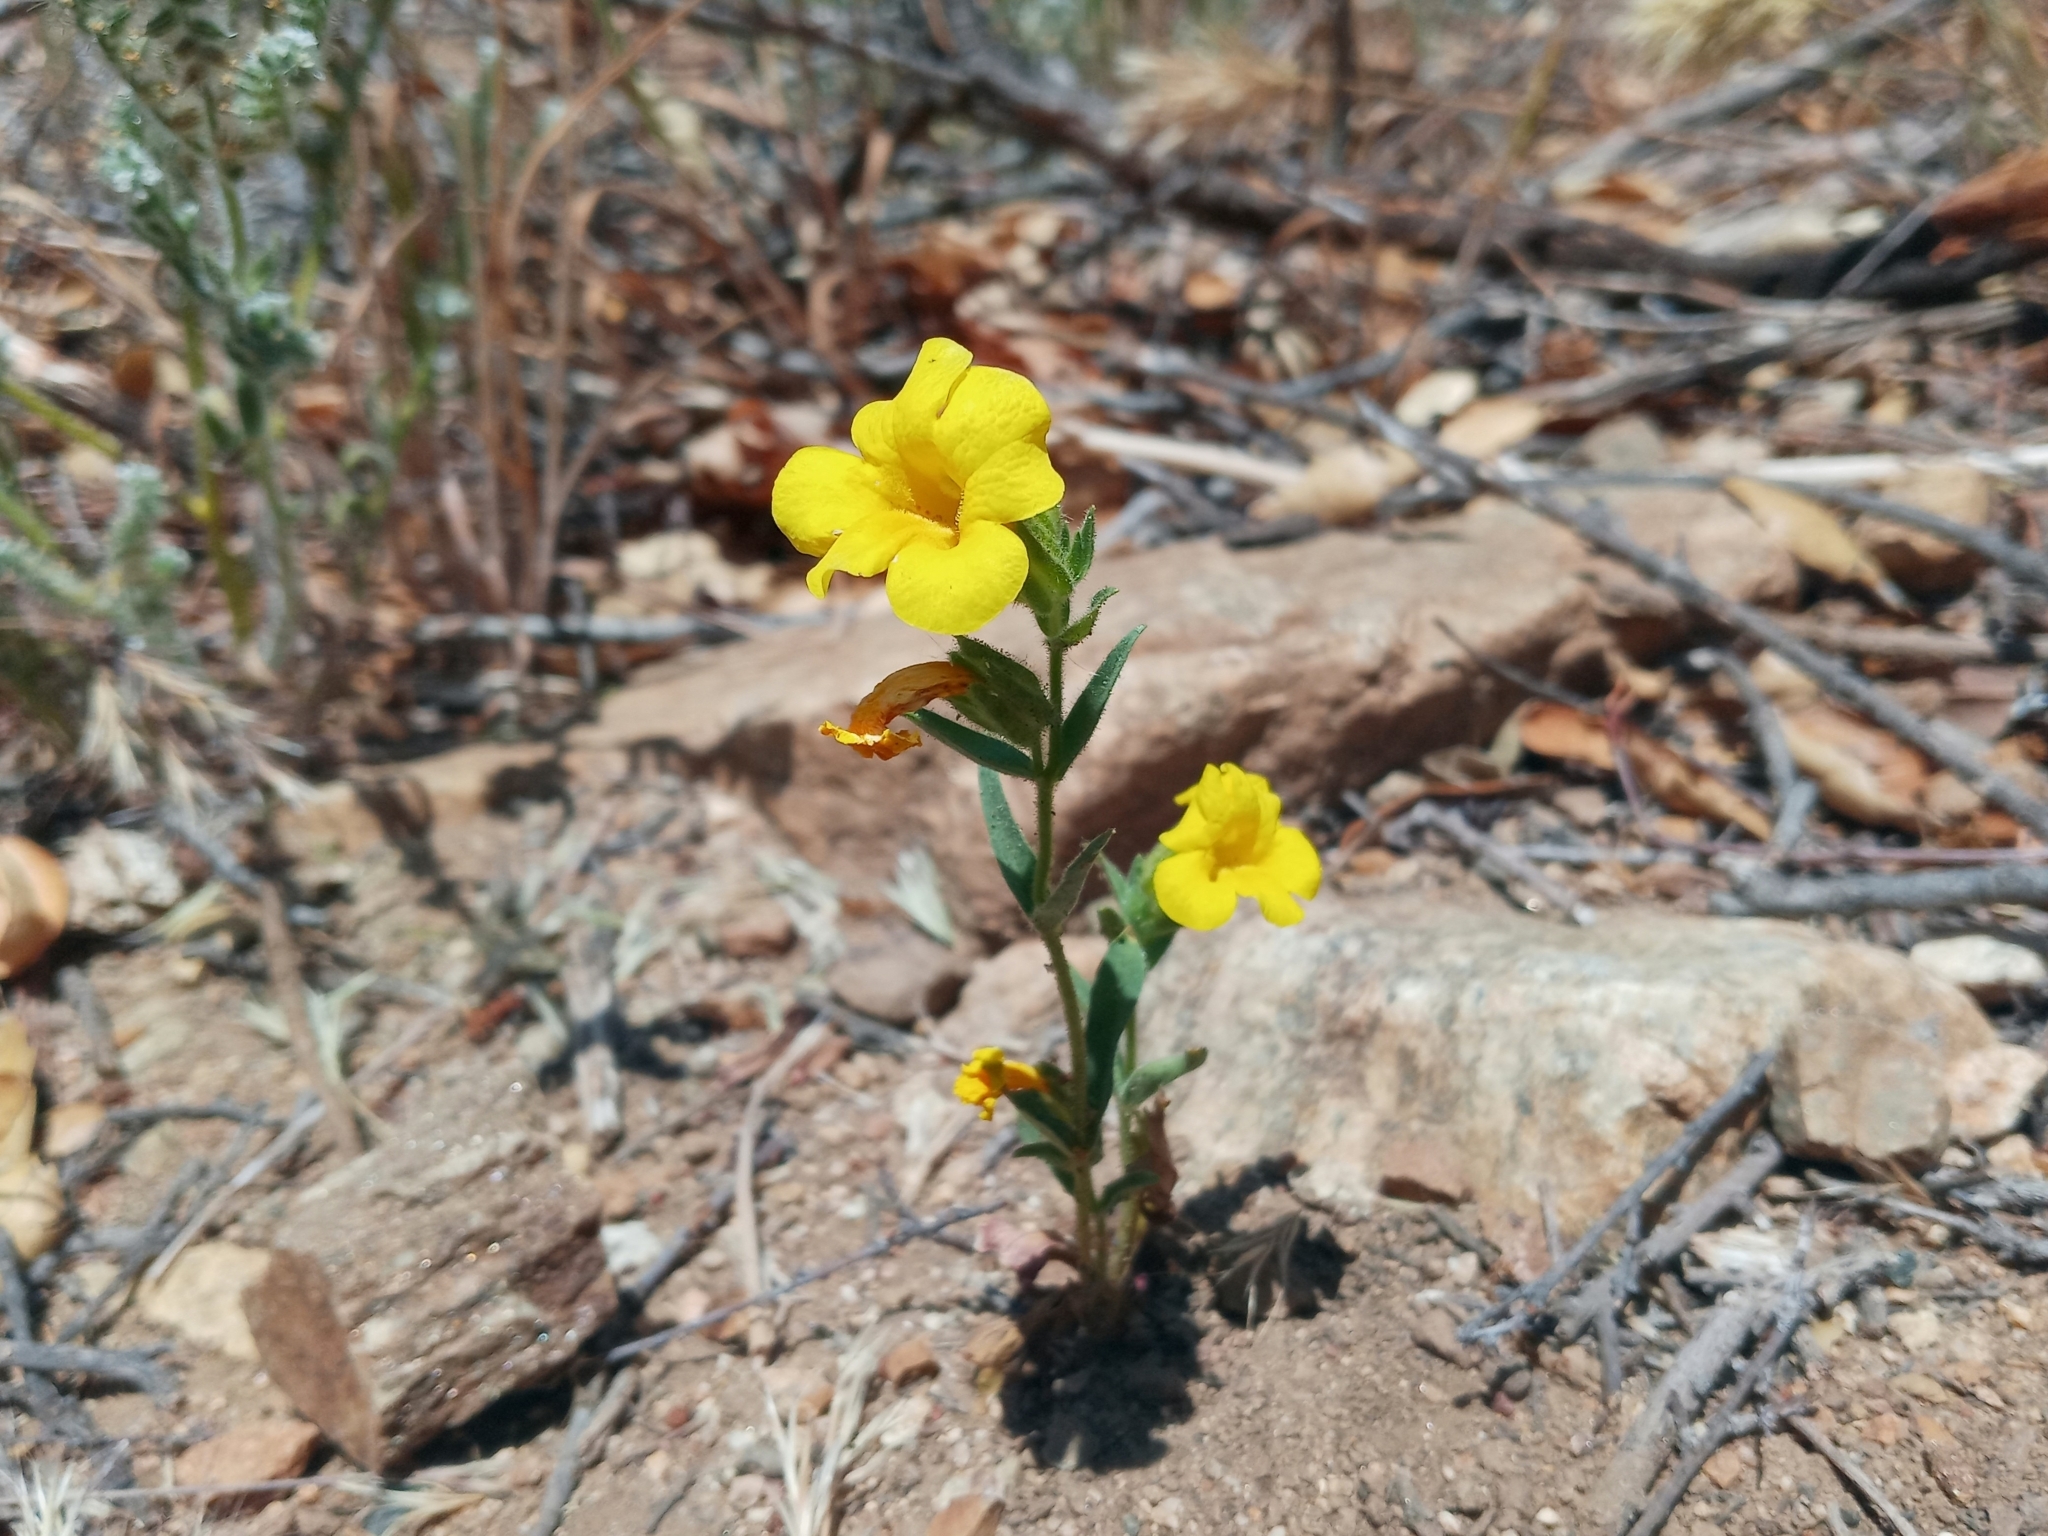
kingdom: Plantae
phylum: Tracheophyta
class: Magnoliopsida
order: Lamiales
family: Phrymaceae
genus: Diplacus
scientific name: Diplacus brevipes
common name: Wide-throat yellow monkey-flower
